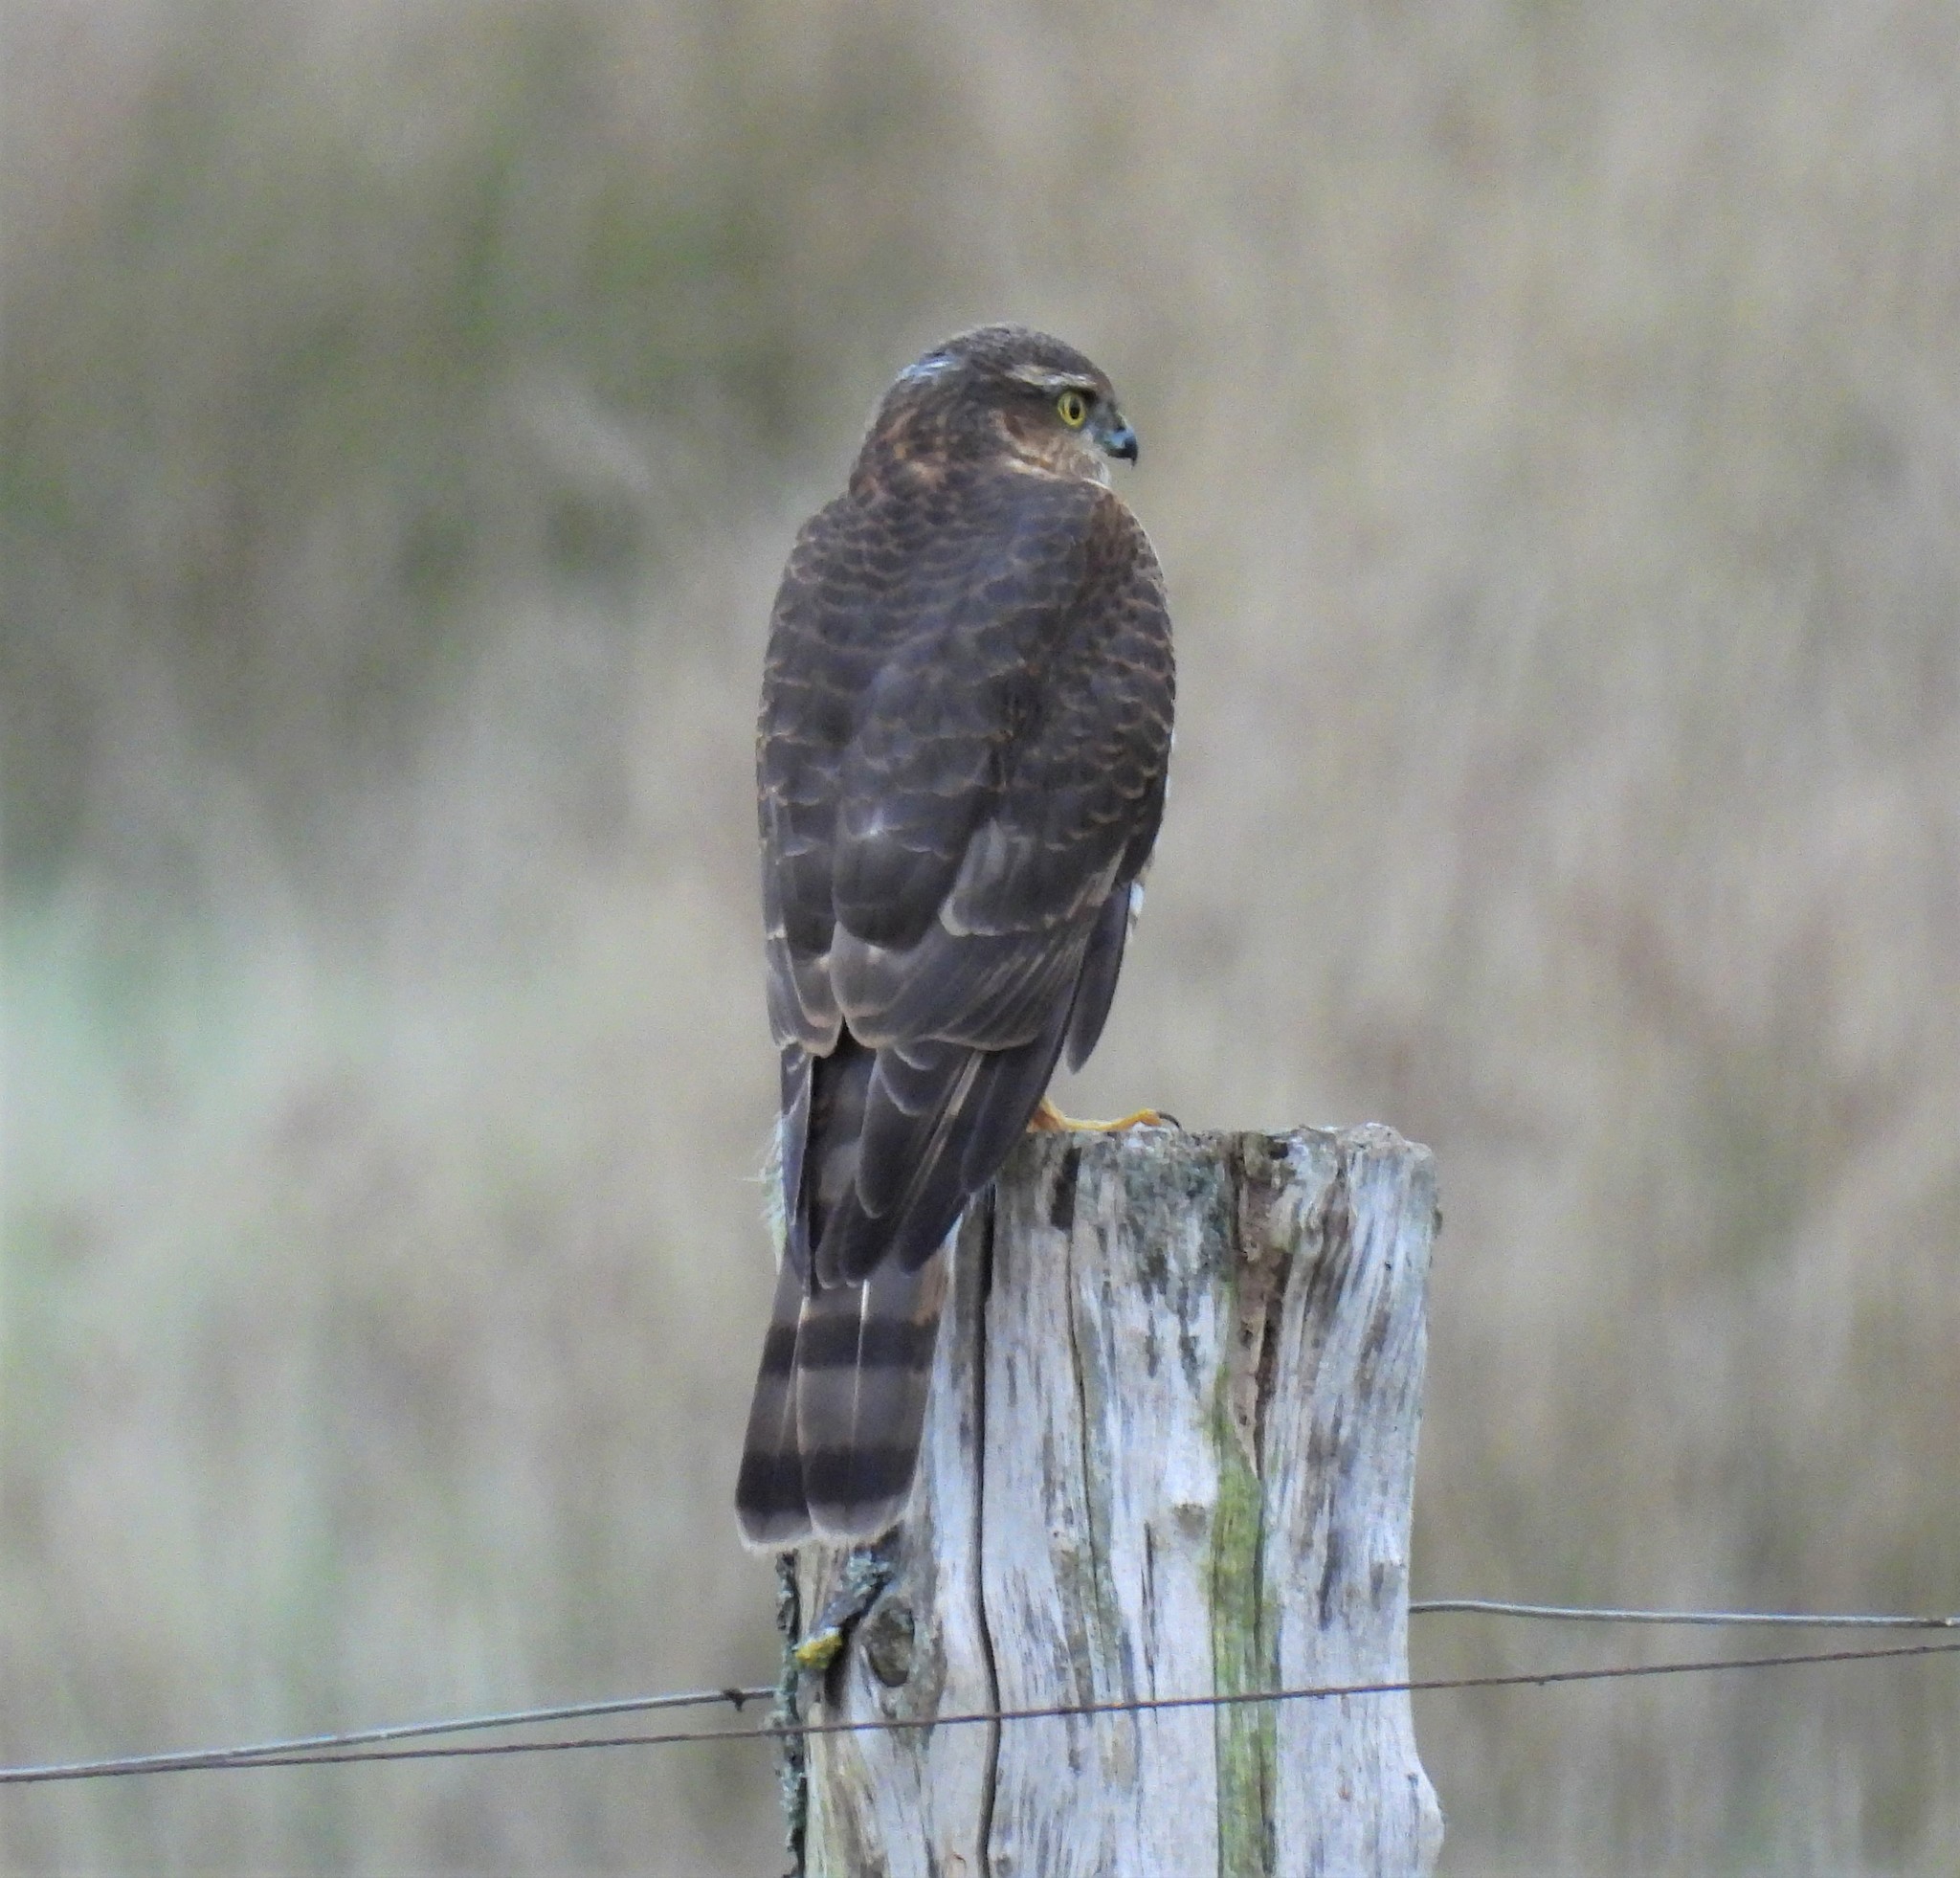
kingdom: Animalia
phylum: Chordata
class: Aves
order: Accipitriformes
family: Accipitridae
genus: Accipiter
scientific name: Accipiter nisus
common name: Eurasian sparrowhawk
